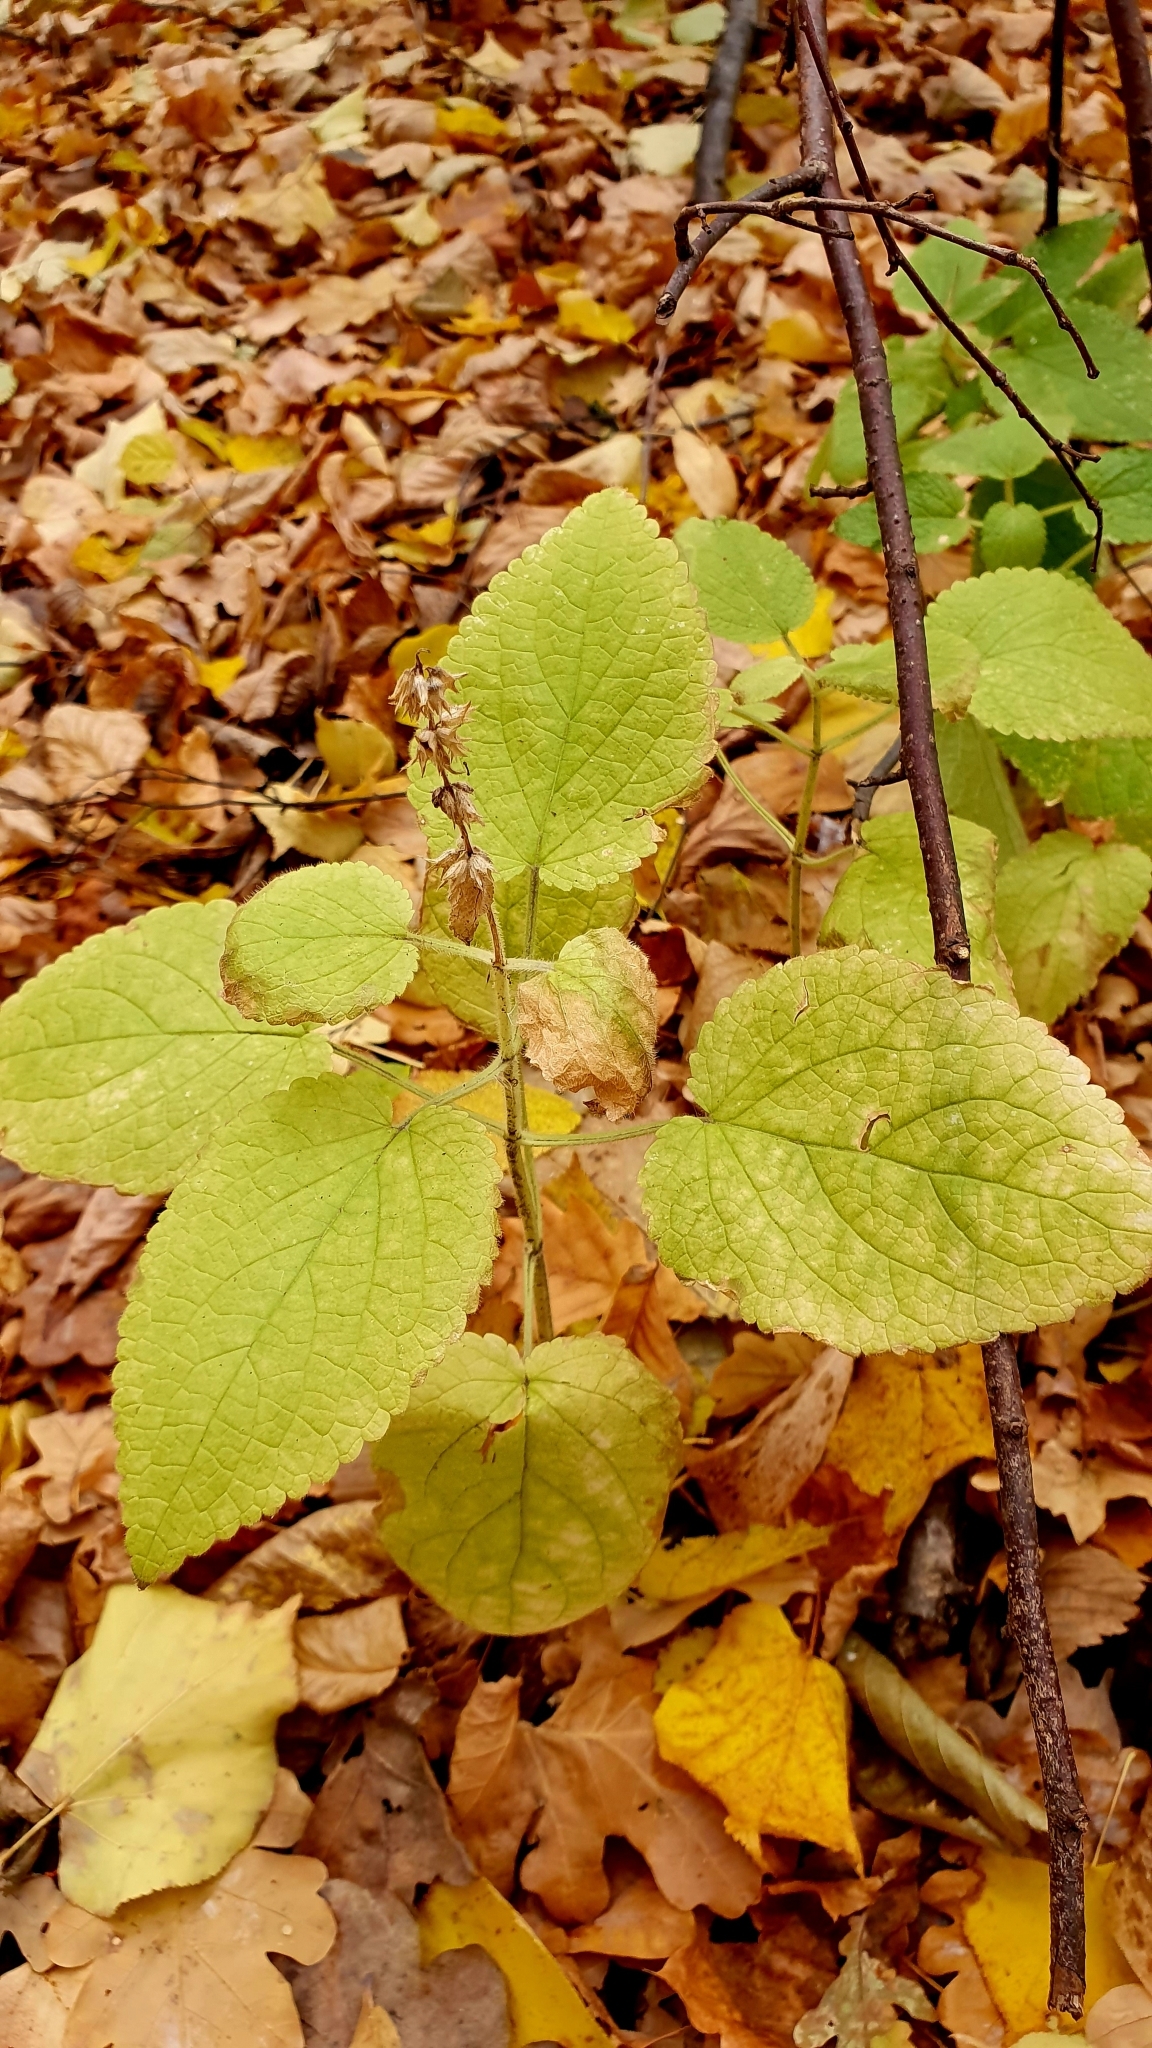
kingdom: Plantae
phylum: Tracheophyta
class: Magnoliopsida
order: Lamiales
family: Lamiaceae
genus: Stachys
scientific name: Stachys sylvatica
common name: Hedge woundwort
